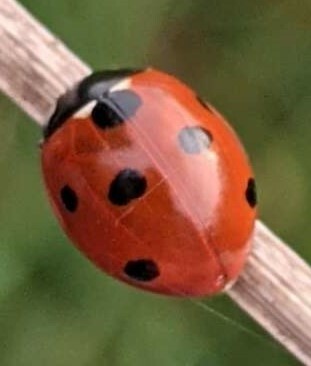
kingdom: Animalia
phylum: Arthropoda
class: Insecta
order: Coleoptera
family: Coccinellidae
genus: Coccinella
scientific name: Coccinella septempunctata
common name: Sevenspotted lady beetle
